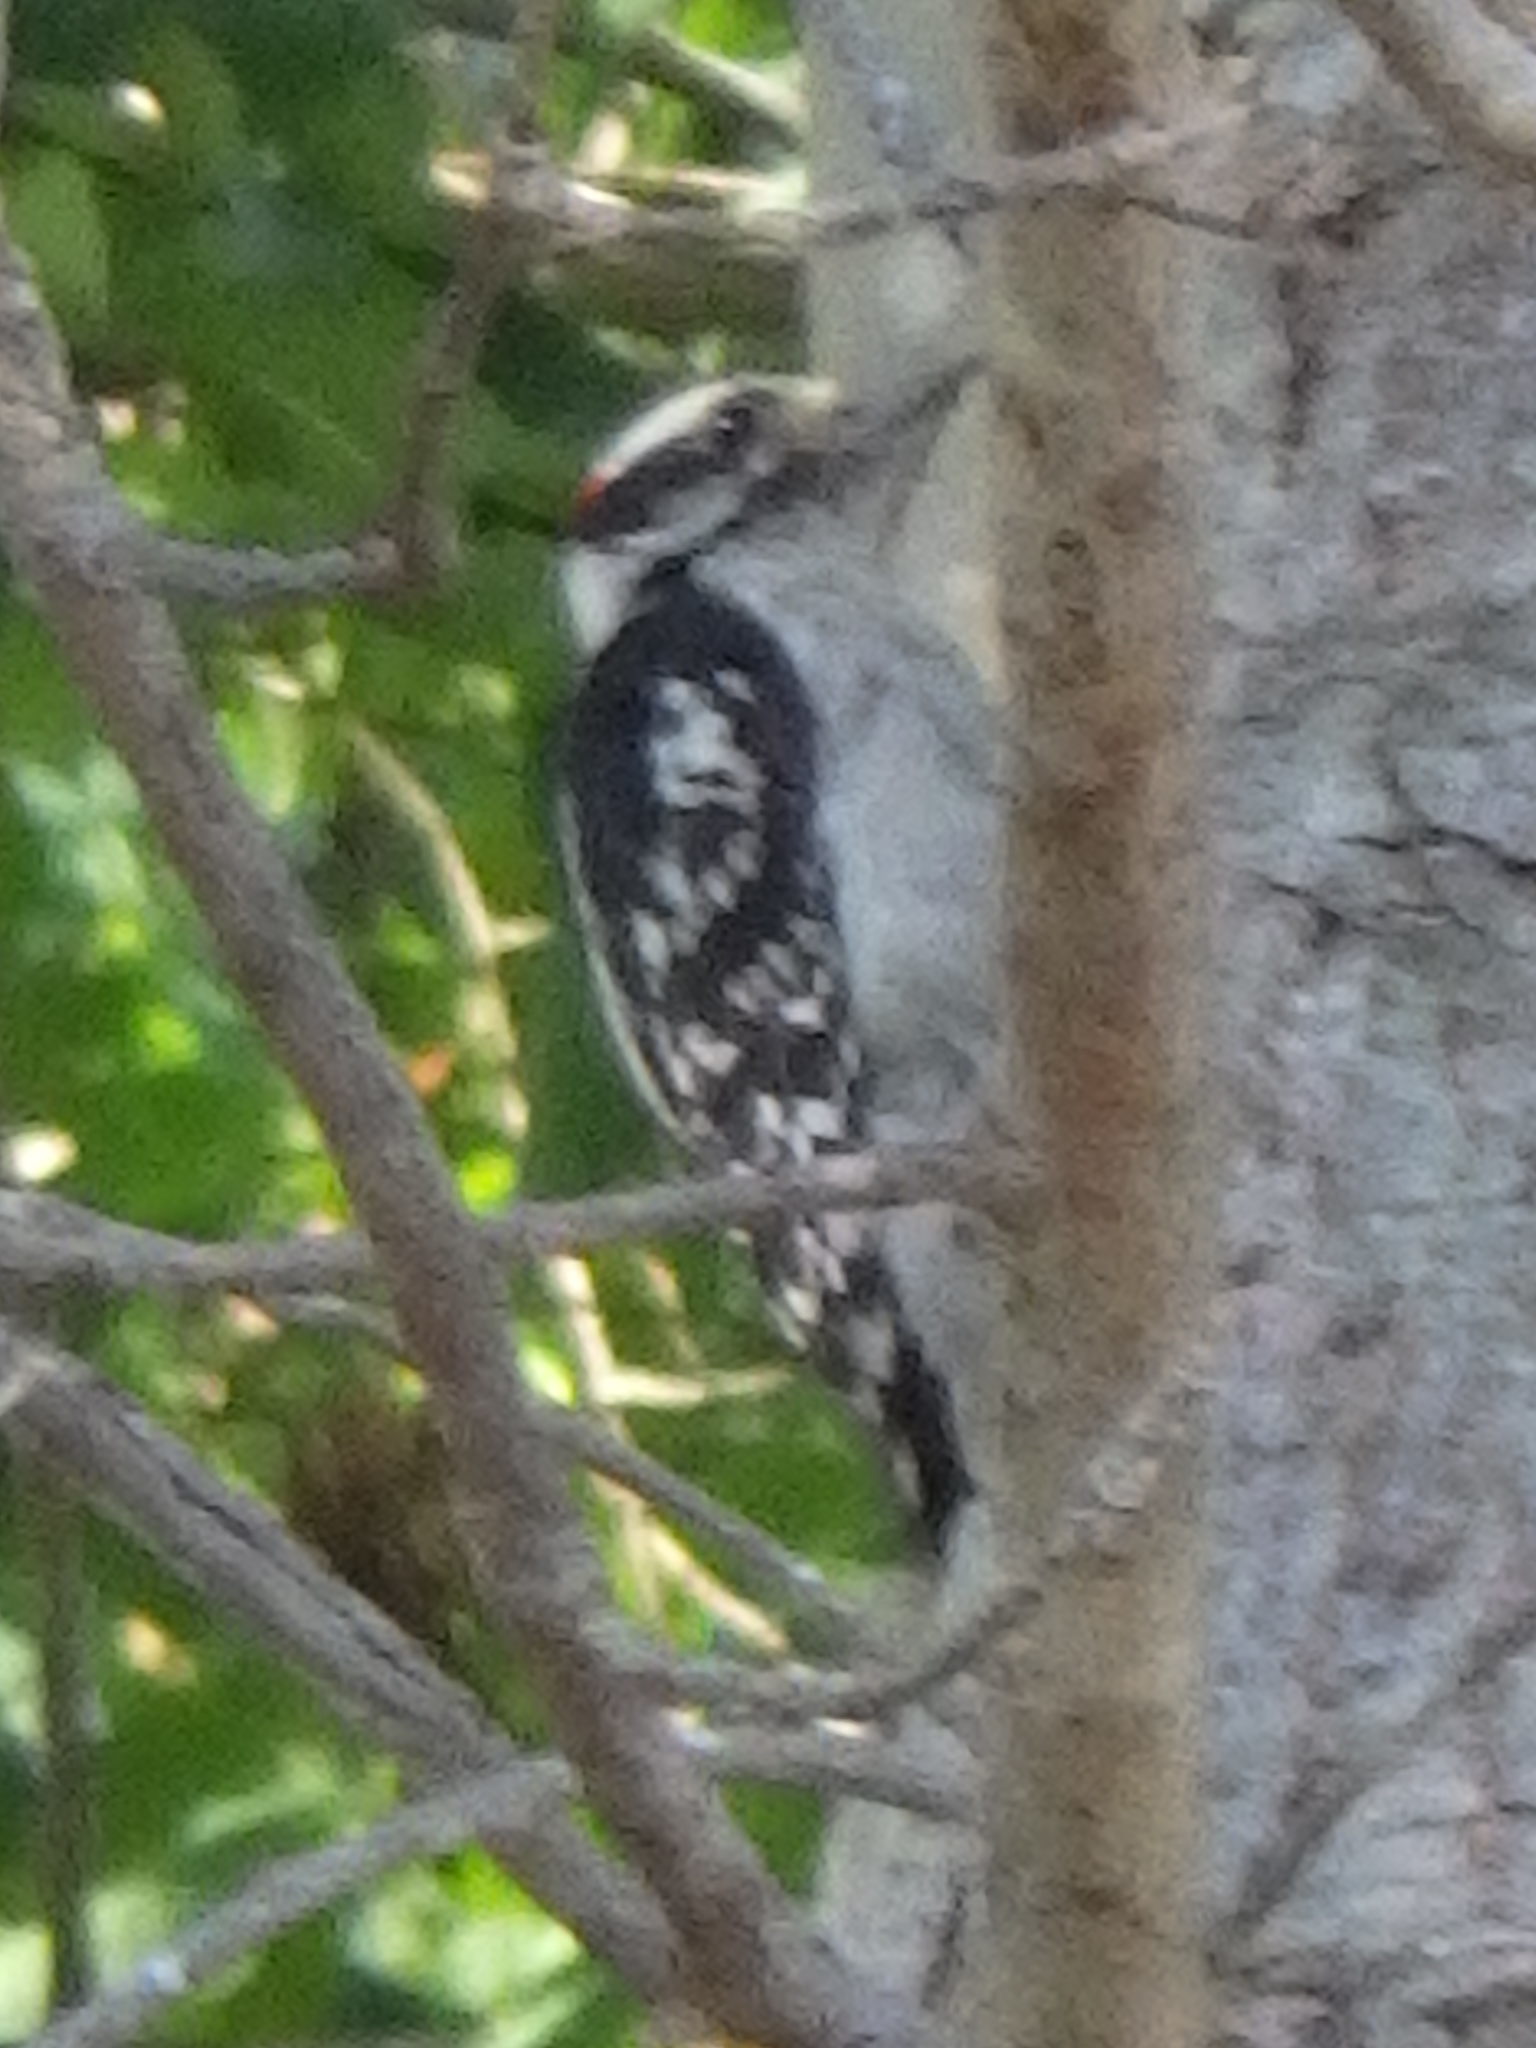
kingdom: Animalia
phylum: Chordata
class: Aves
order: Piciformes
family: Picidae
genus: Dryobates
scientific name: Dryobates pubescens
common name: Downy woodpecker
